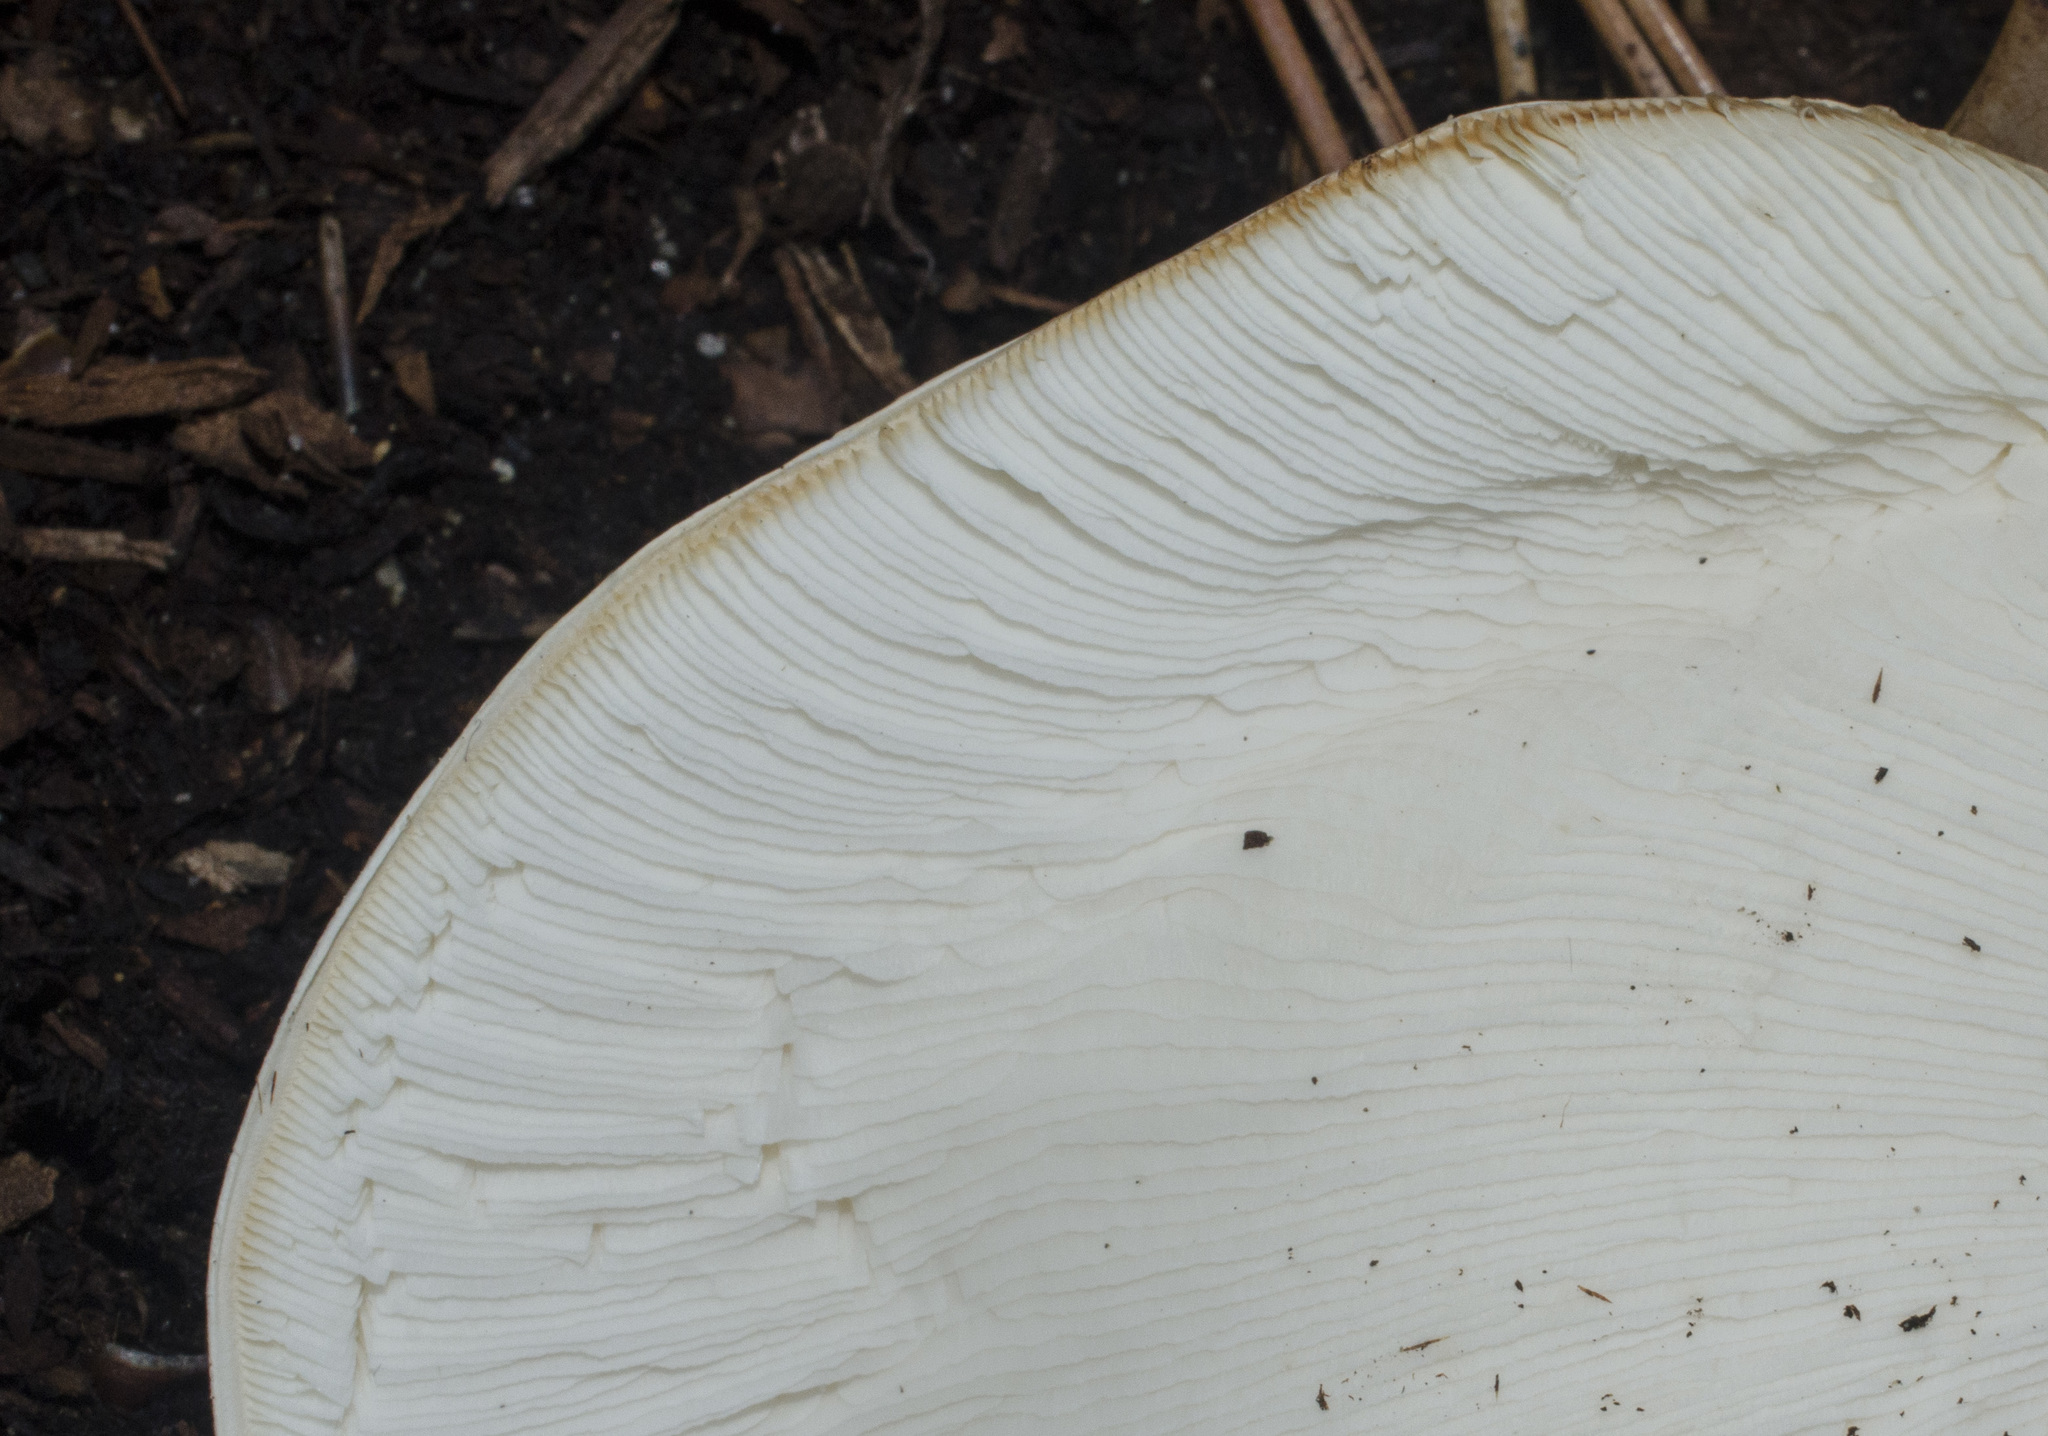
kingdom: Fungi
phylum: Basidiomycota
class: Agaricomycetes
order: Agaricales
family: Agaricaceae
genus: Echinoderma
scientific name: Echinoderma asperum
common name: Freckled dapperling
